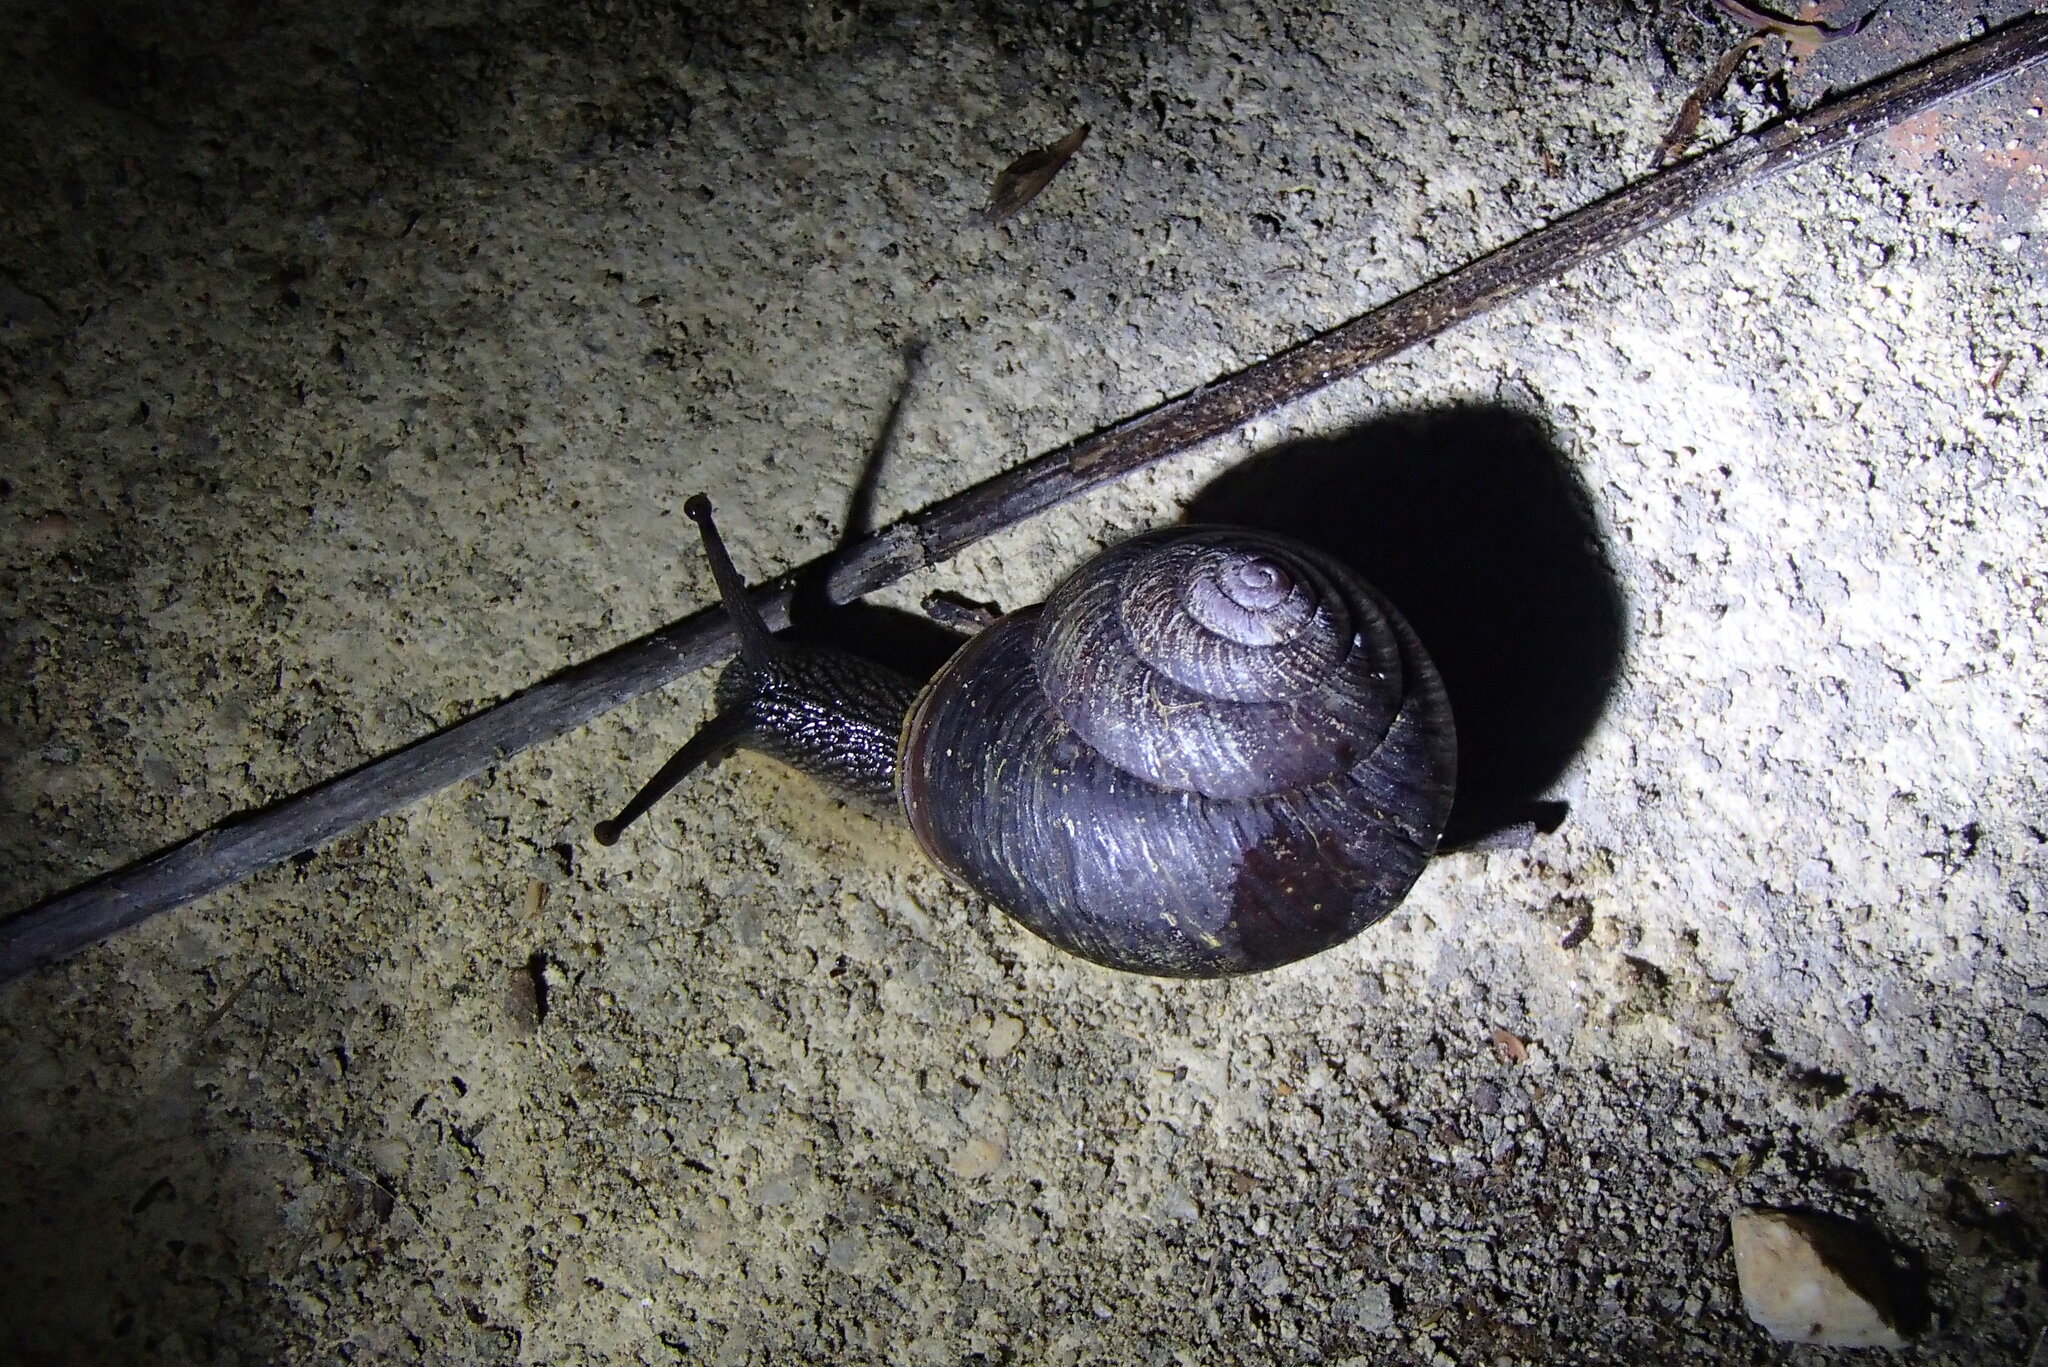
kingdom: Animalia
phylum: Mollusca
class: Gastropoda
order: Stylommatophora
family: Camaenidae
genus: Pommerhelix
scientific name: Pommerhelix monacha
